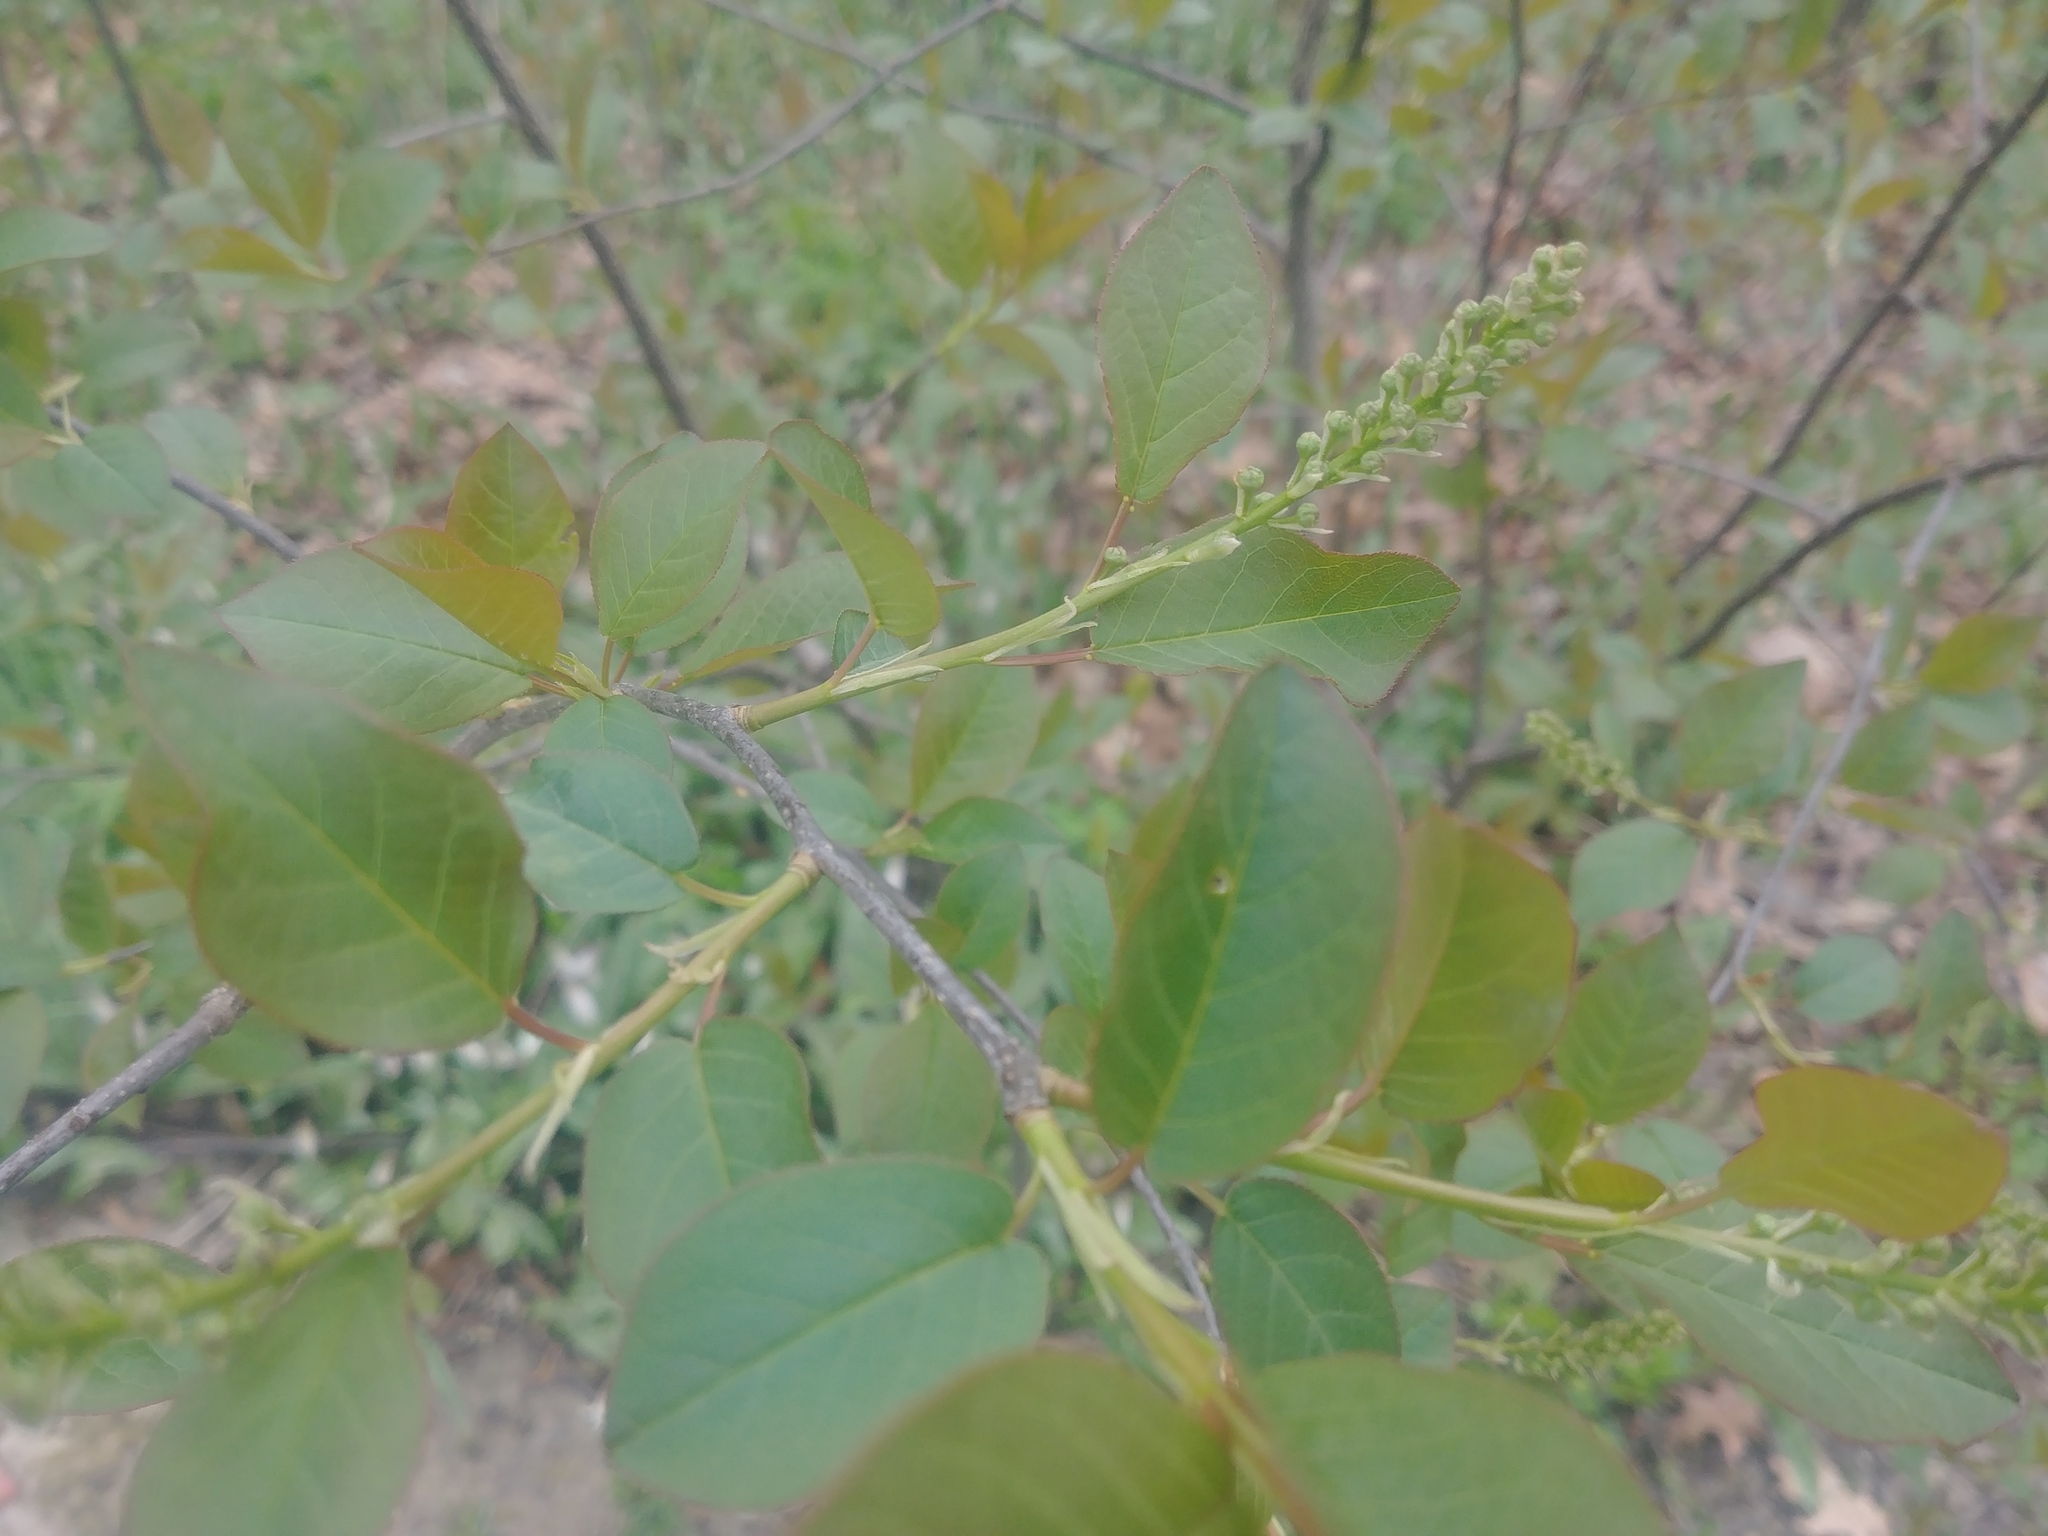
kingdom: Plantae
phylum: Tracheophyta
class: Magnoliopsida
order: Rosales
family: Rosaceae
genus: Prunus
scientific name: Prunus virginiana
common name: Chokecherry
